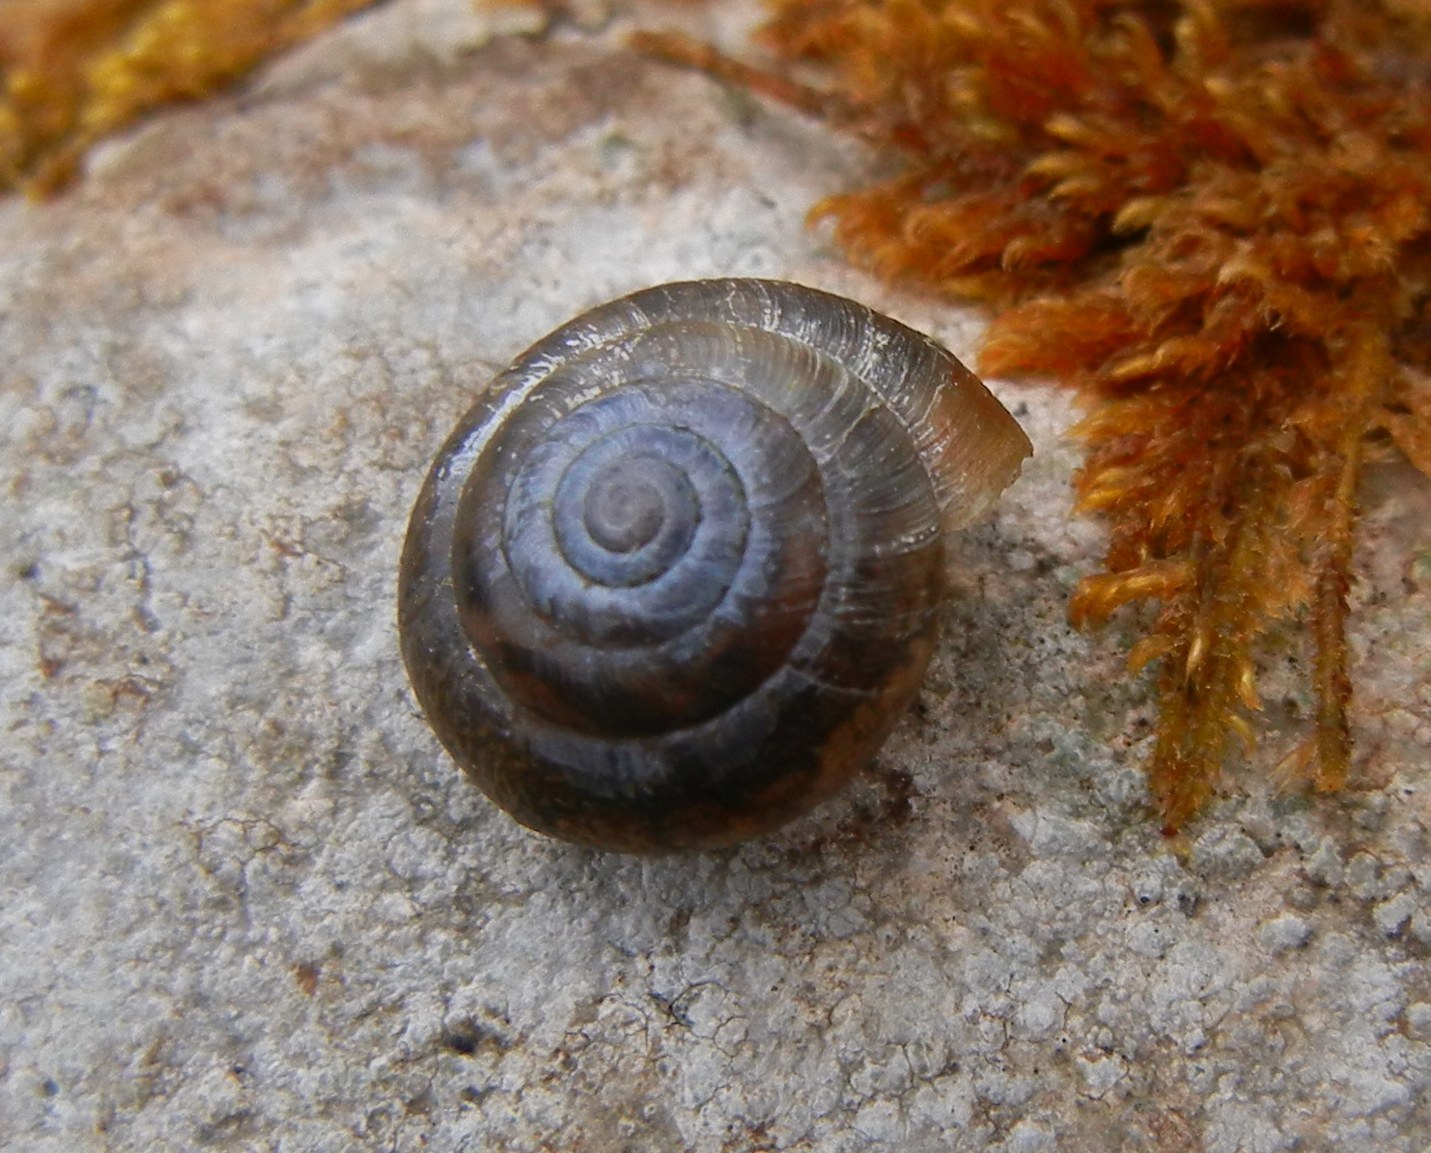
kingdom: Animalia
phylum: Mollusca
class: Gastropoda
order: Stylommatophora
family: Hygromiidae
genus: Trochulus
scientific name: Trochulus striolatus
